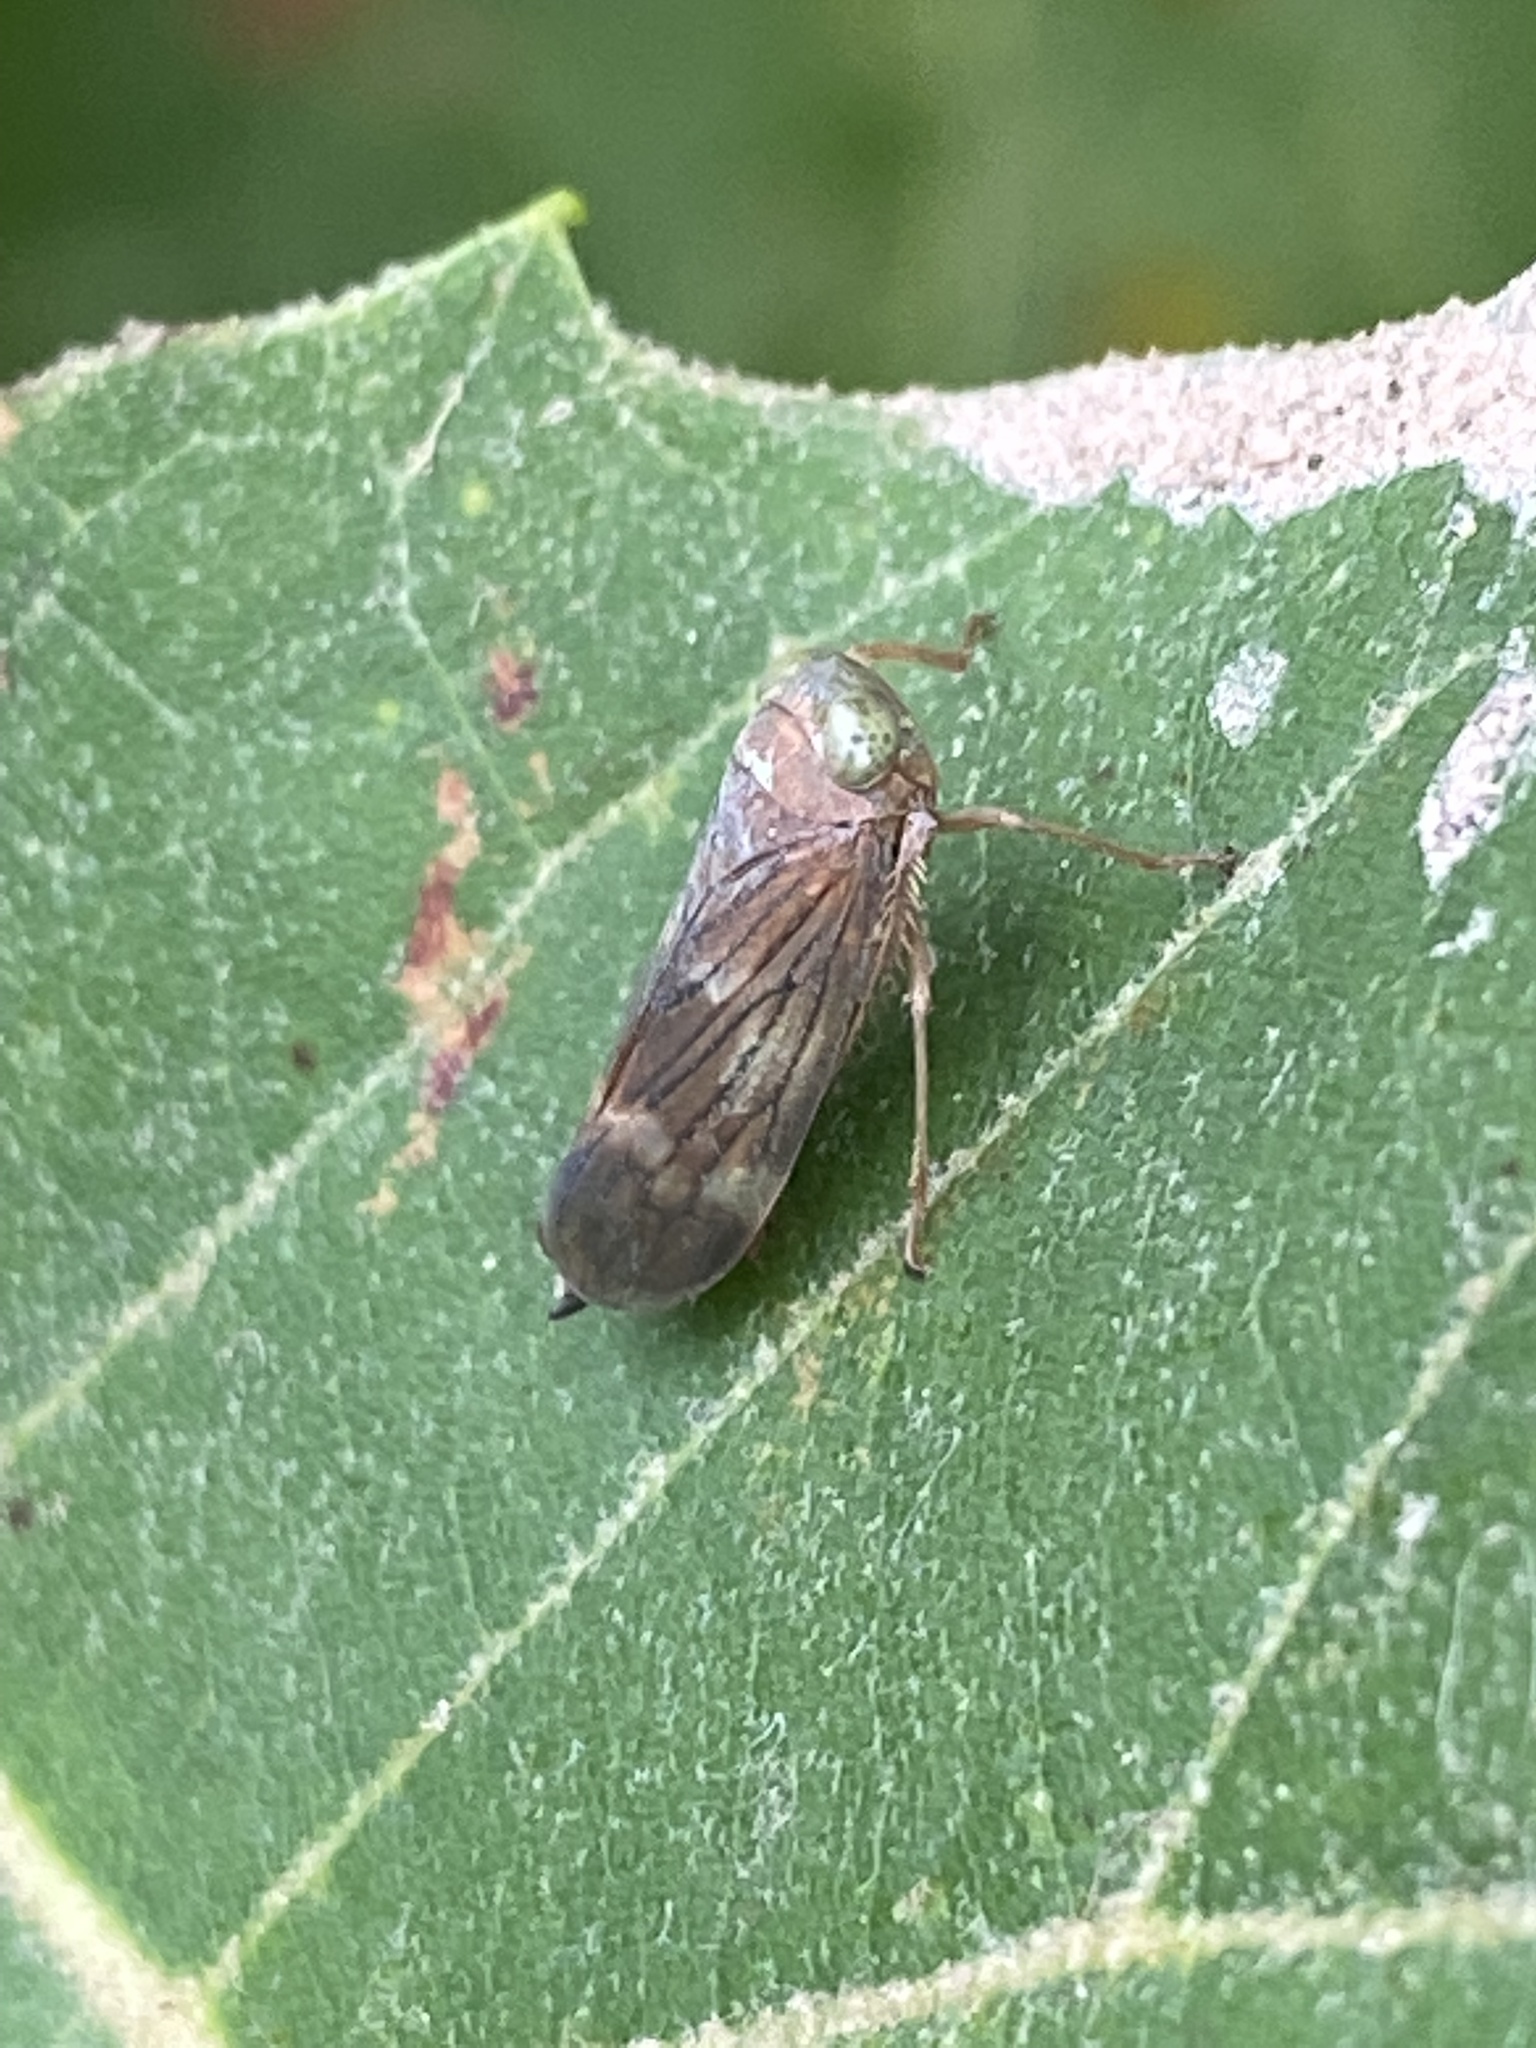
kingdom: Animalia
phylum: Arthropoda
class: Insecta
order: Hemiptera
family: Cicadellidae
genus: Jikradia
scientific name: Jikradia olitoria
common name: Coppery leafhopper
